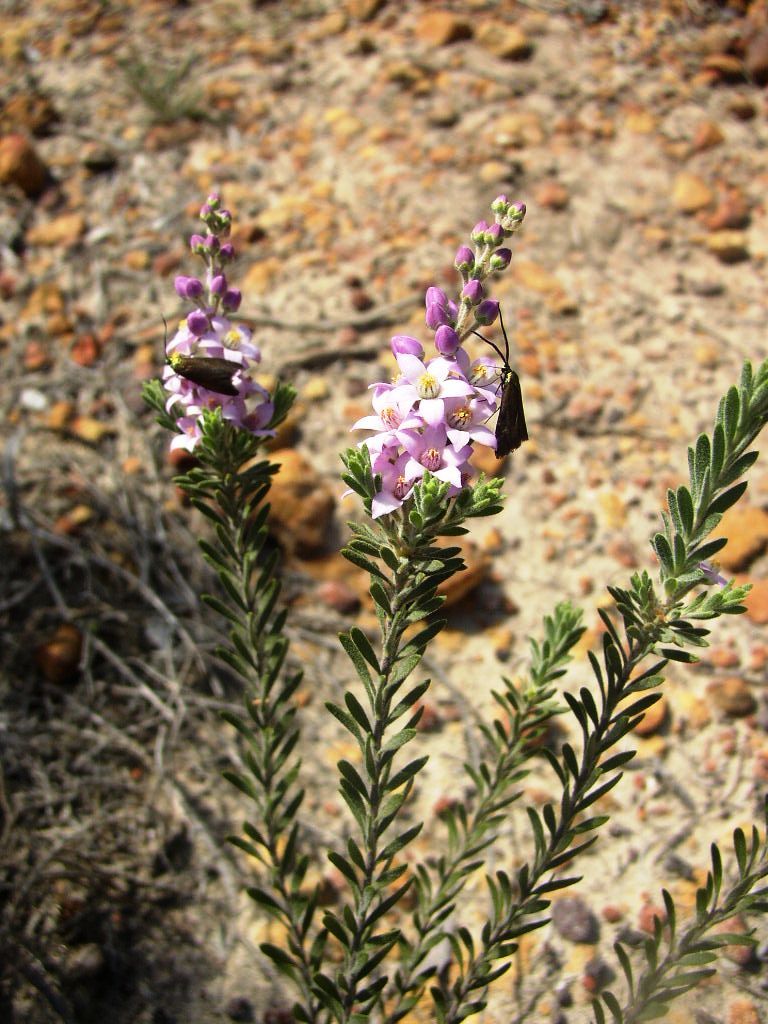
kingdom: Plantae
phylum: Tracheophyta
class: Magnoliopsida
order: Sapindales
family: Rutaceae
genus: Philotheca
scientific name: Philotheca spicata
